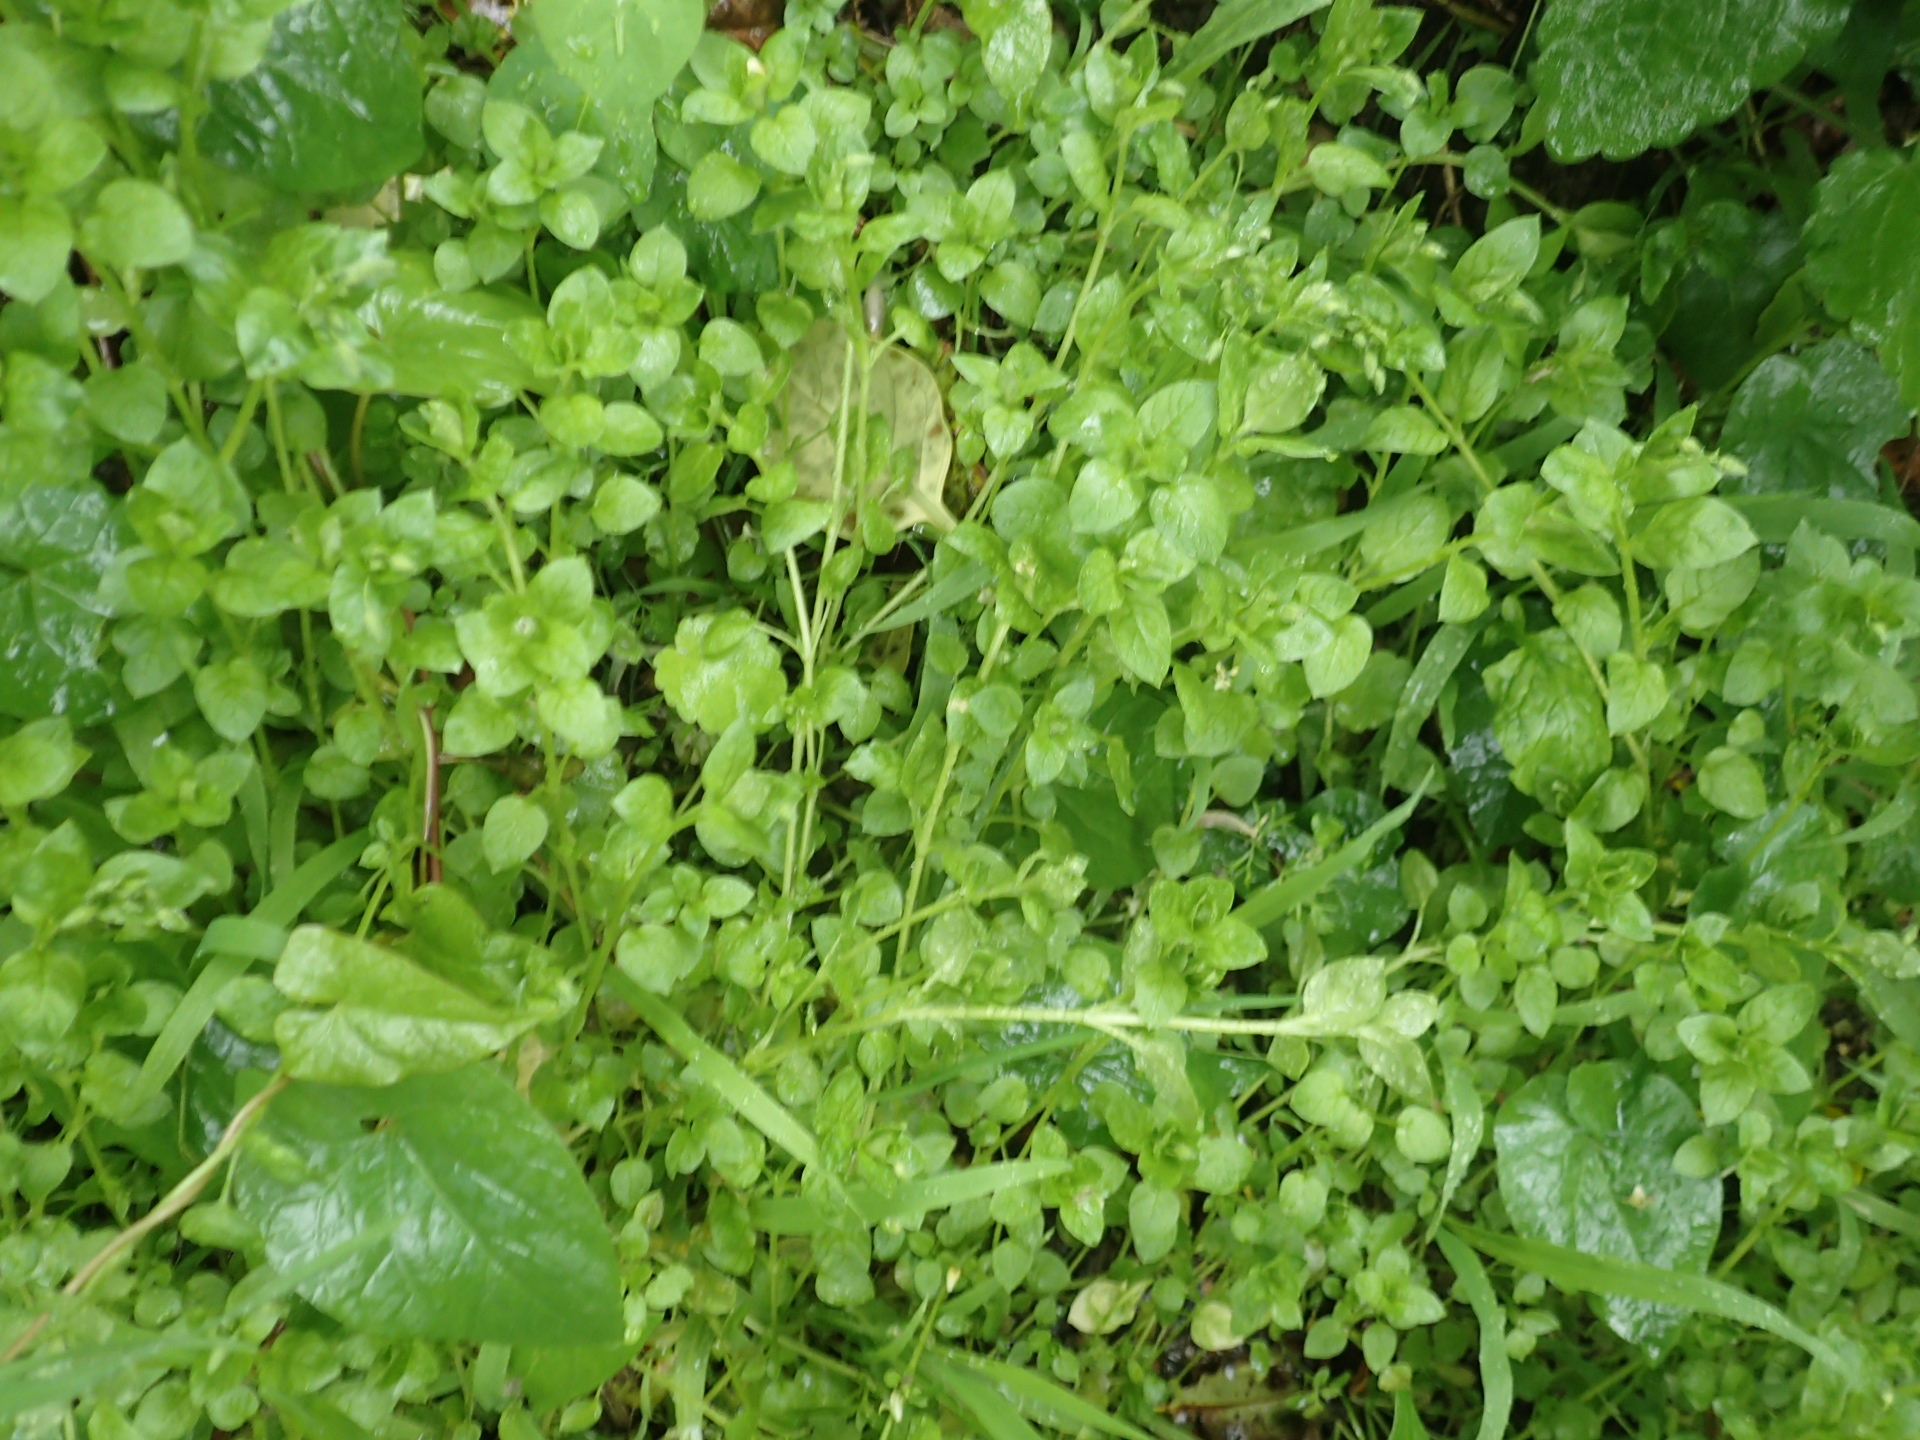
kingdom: Plantae
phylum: Tracheophyta
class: Magnoliopsida
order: Caryophyllales
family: Caryophyllaceae
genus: Stellaria
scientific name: Stellaria media
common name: Common chickweed
